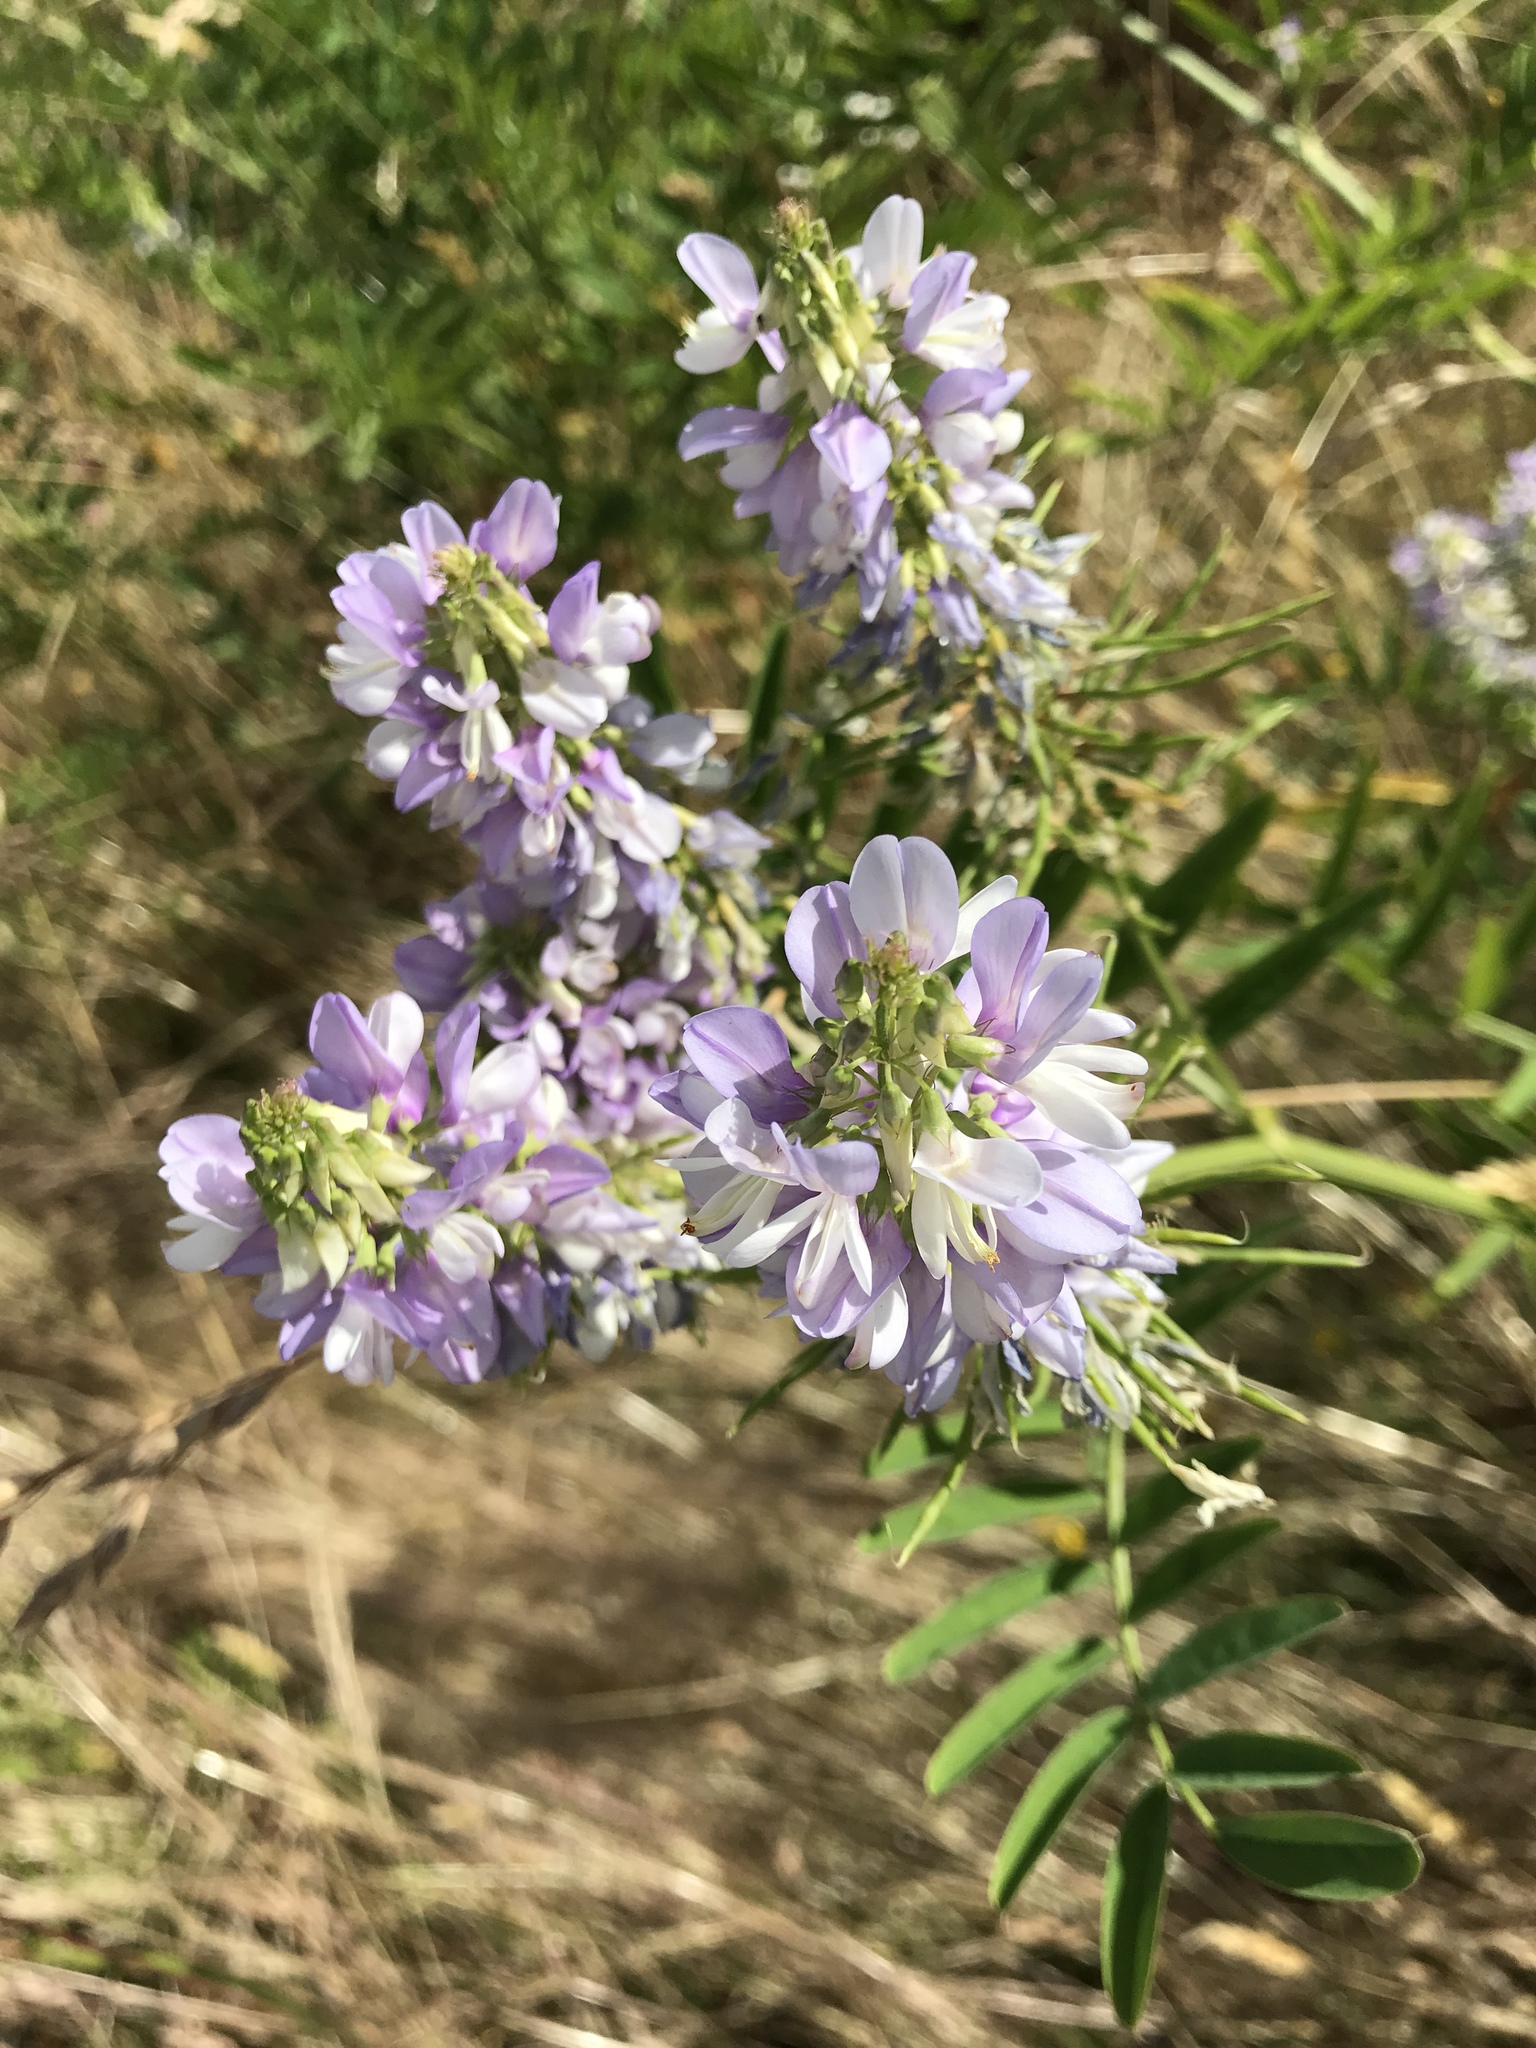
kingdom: Plantae
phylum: Tracheophyta
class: Magnoliopsida
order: Fabales
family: Fabaceae
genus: Galega
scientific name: Galega officinalis
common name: Goat's-rue
